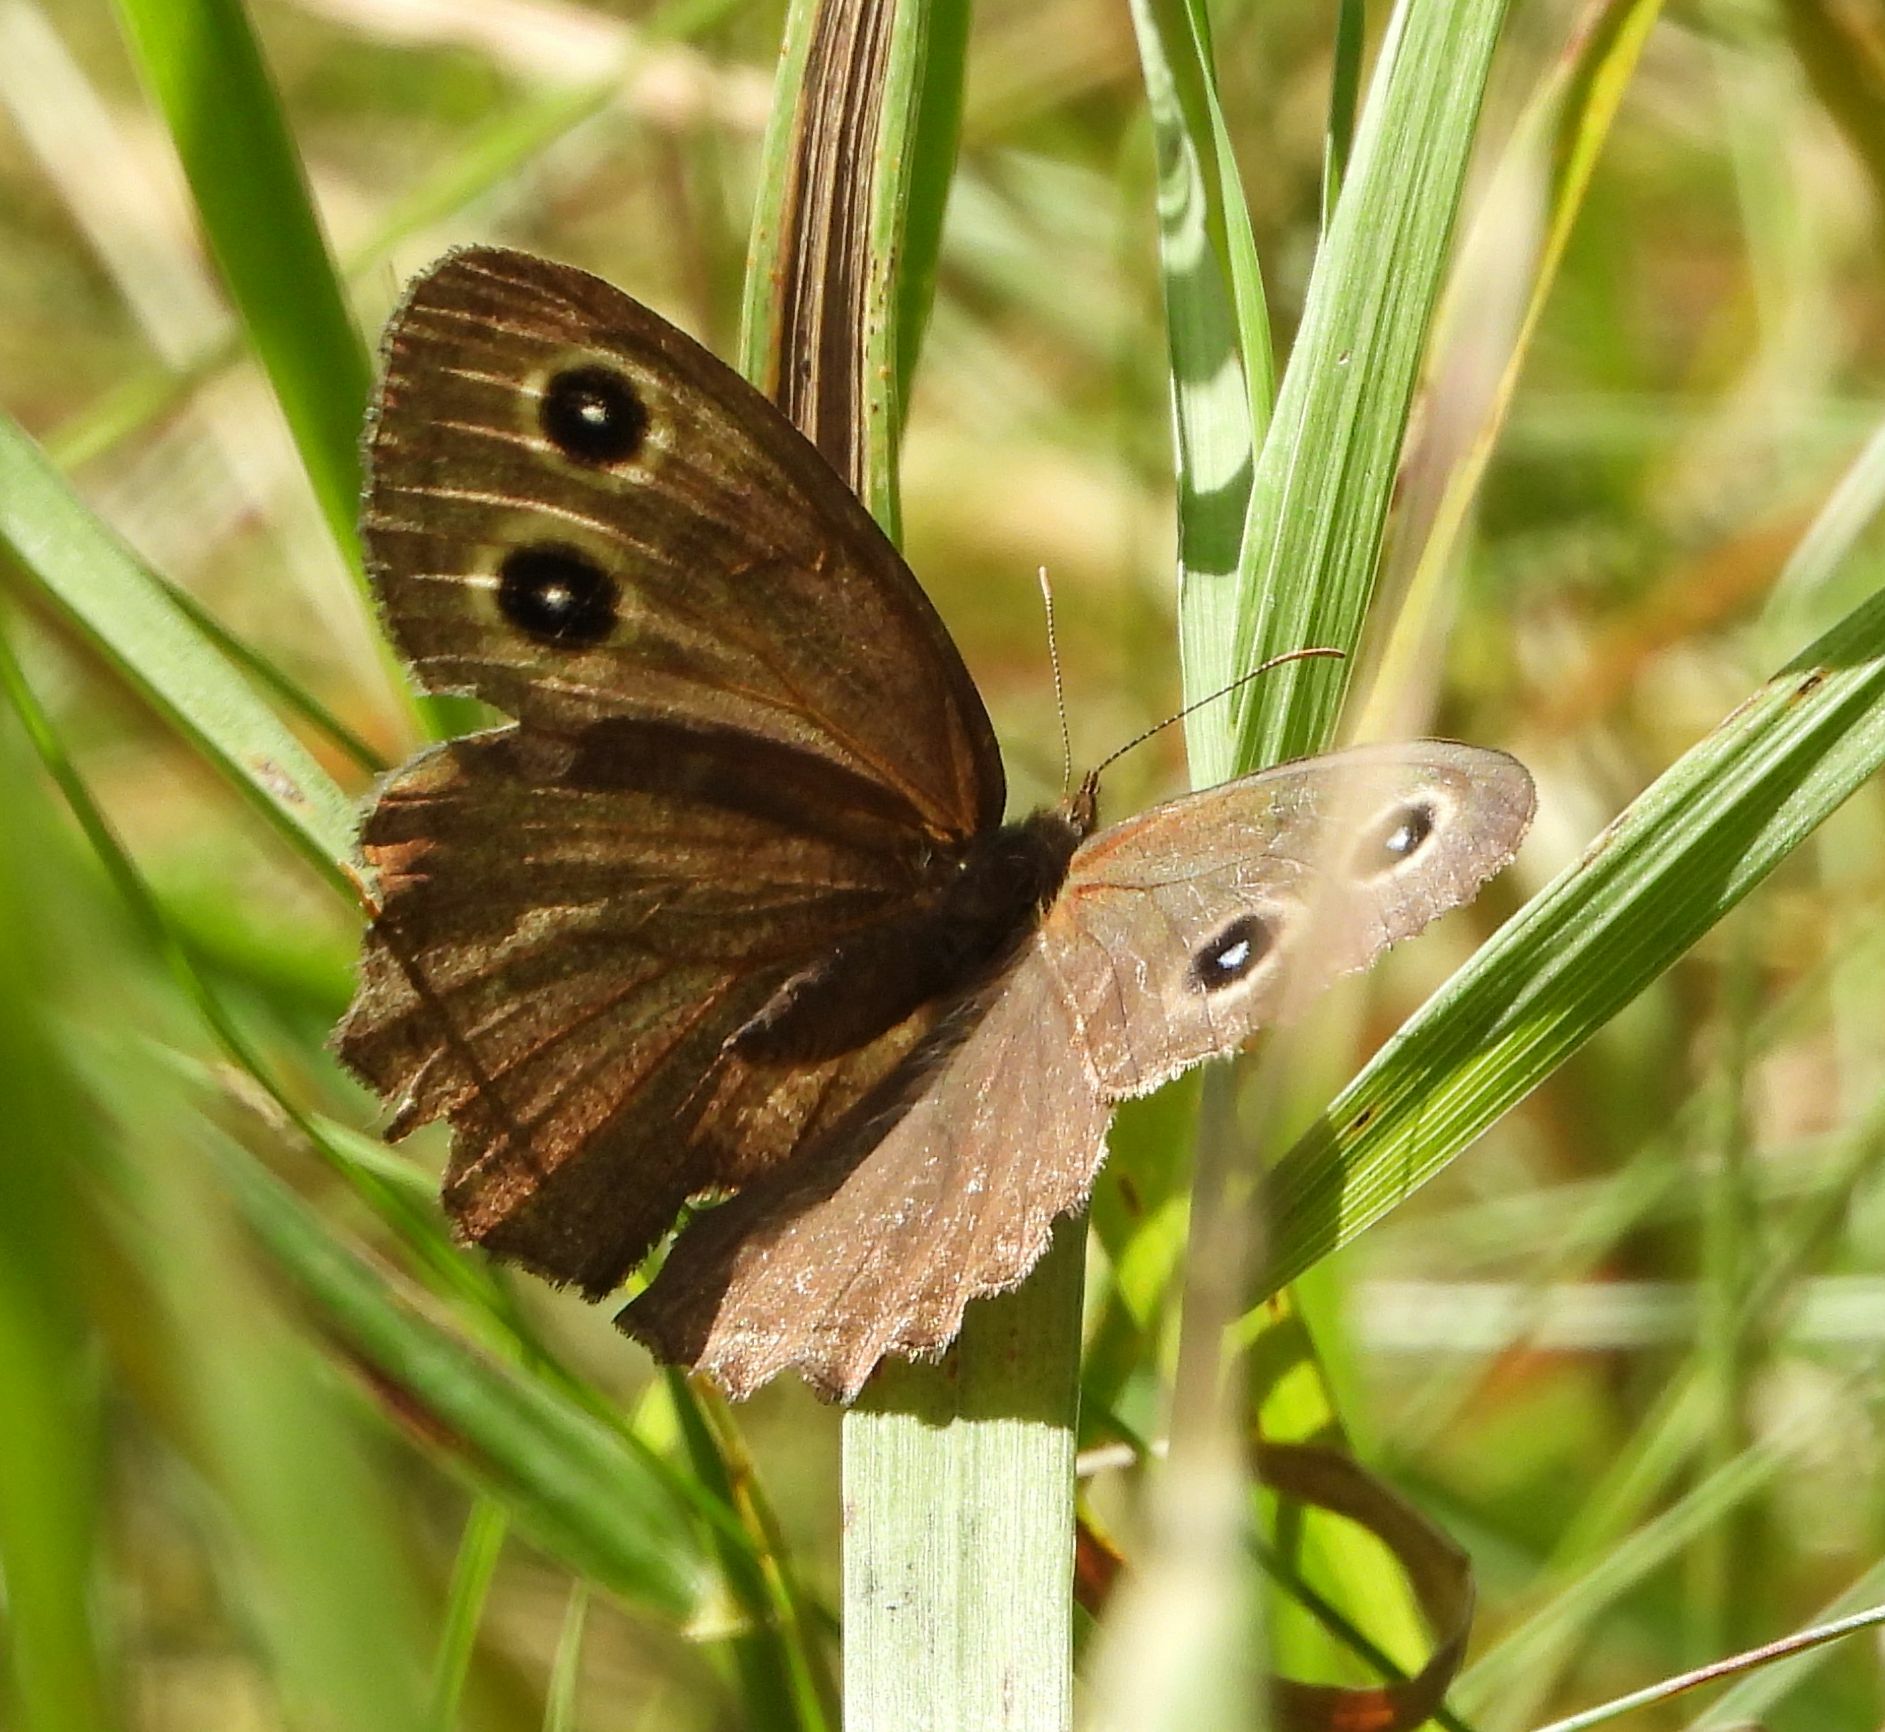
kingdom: Animalia
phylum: Arthropoda
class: Insecta
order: Lepidoptera
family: Nymphalidae
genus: Cercyonis
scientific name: Cercyonis pegala
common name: Common wood-nymph
